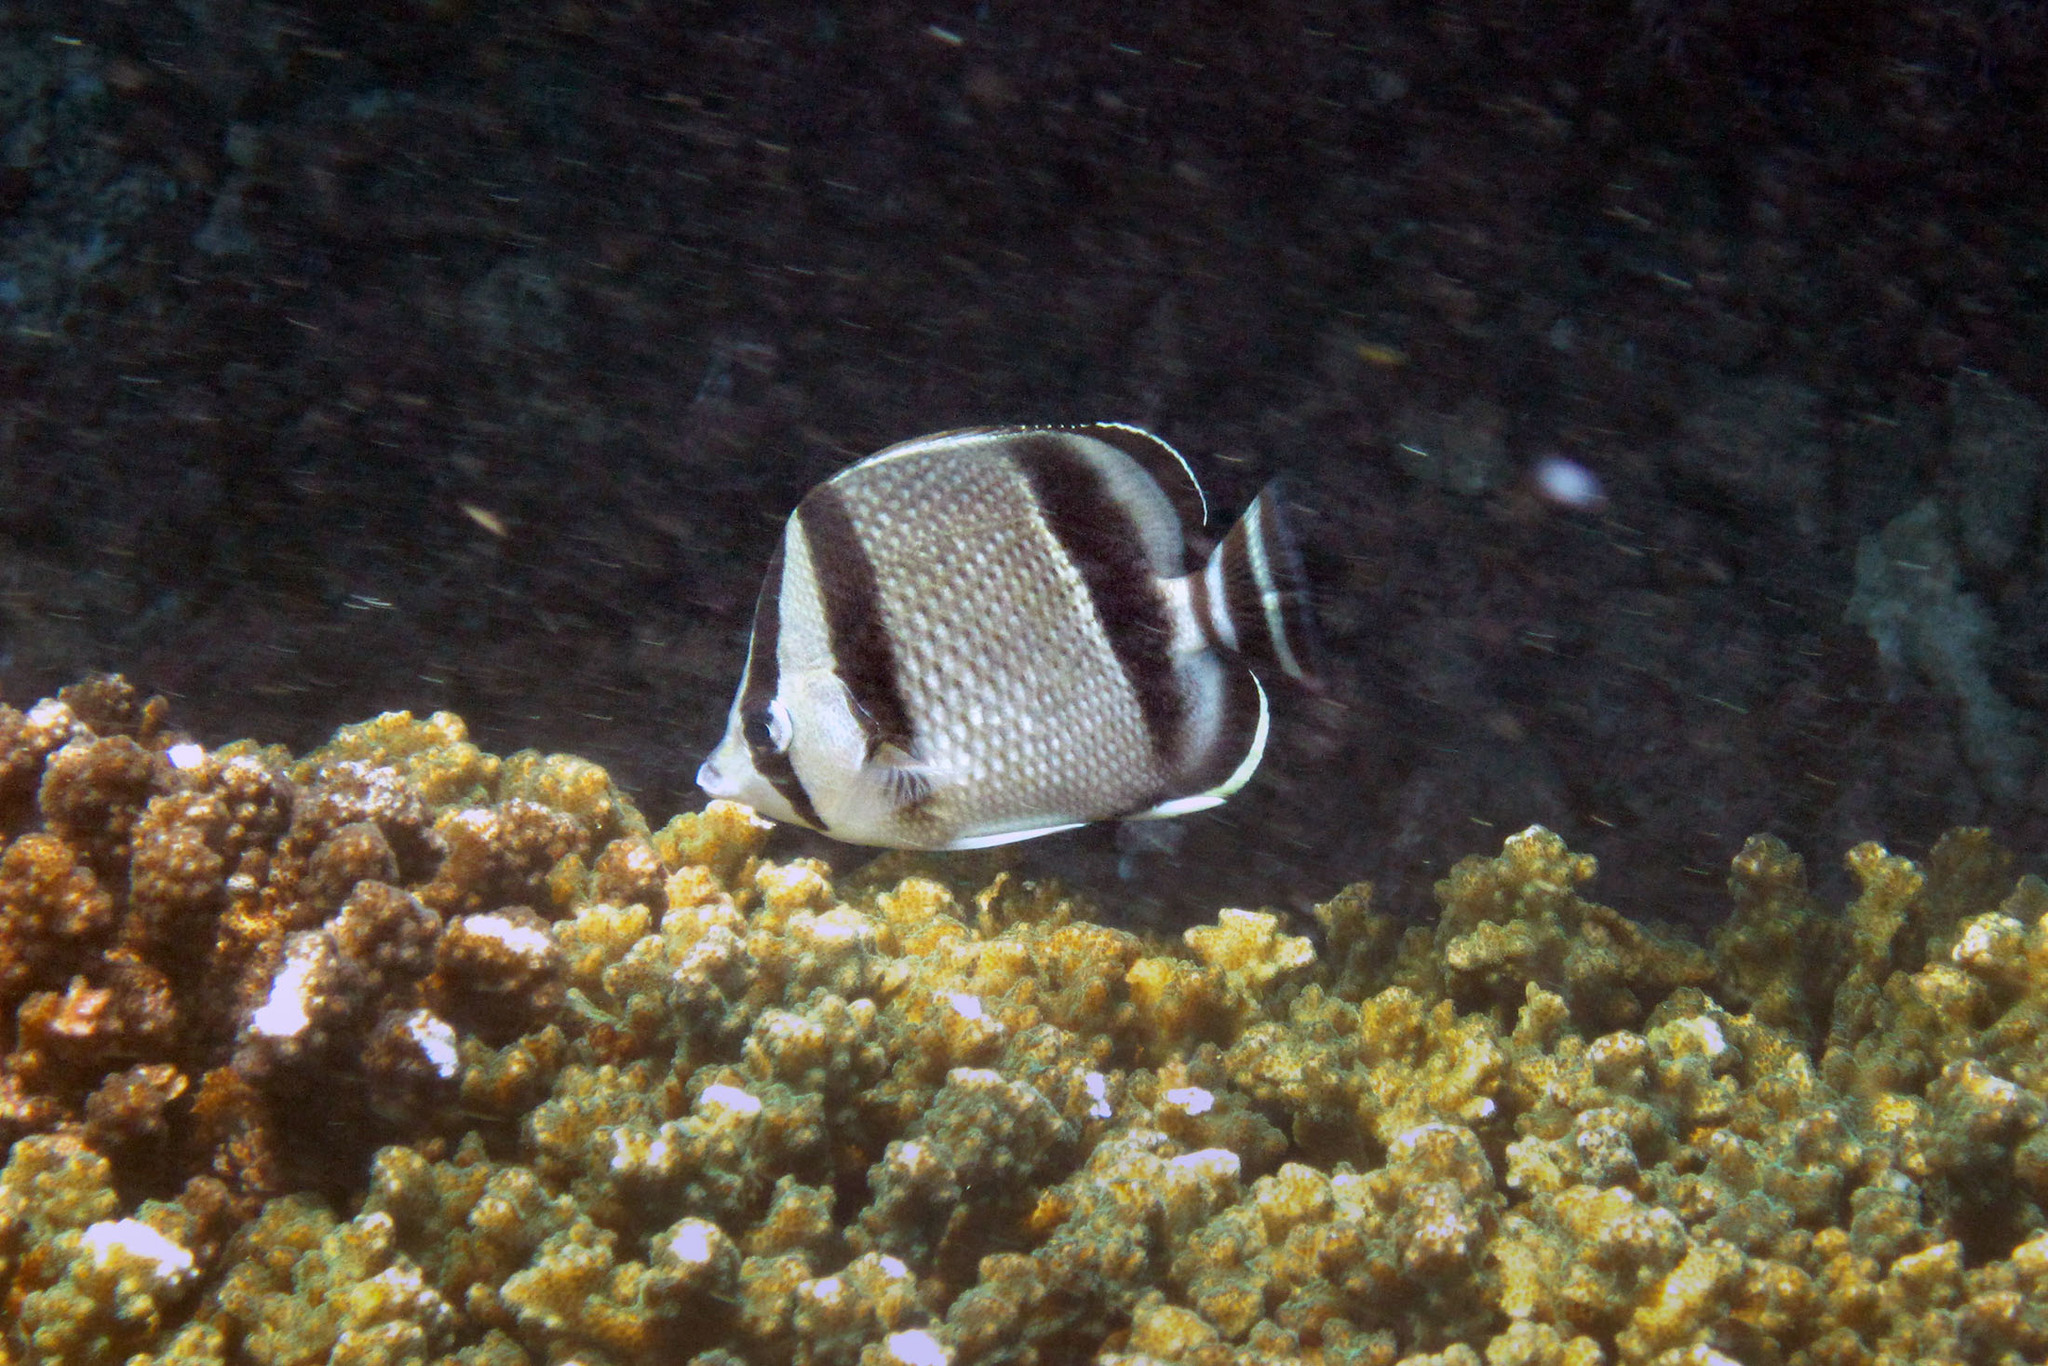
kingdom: Animalia
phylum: Chordata
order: Perciformes
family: Chaetodontidae
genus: Chaetodon
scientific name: Chaetodon humeralis
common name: Threebanded butterflyfish
